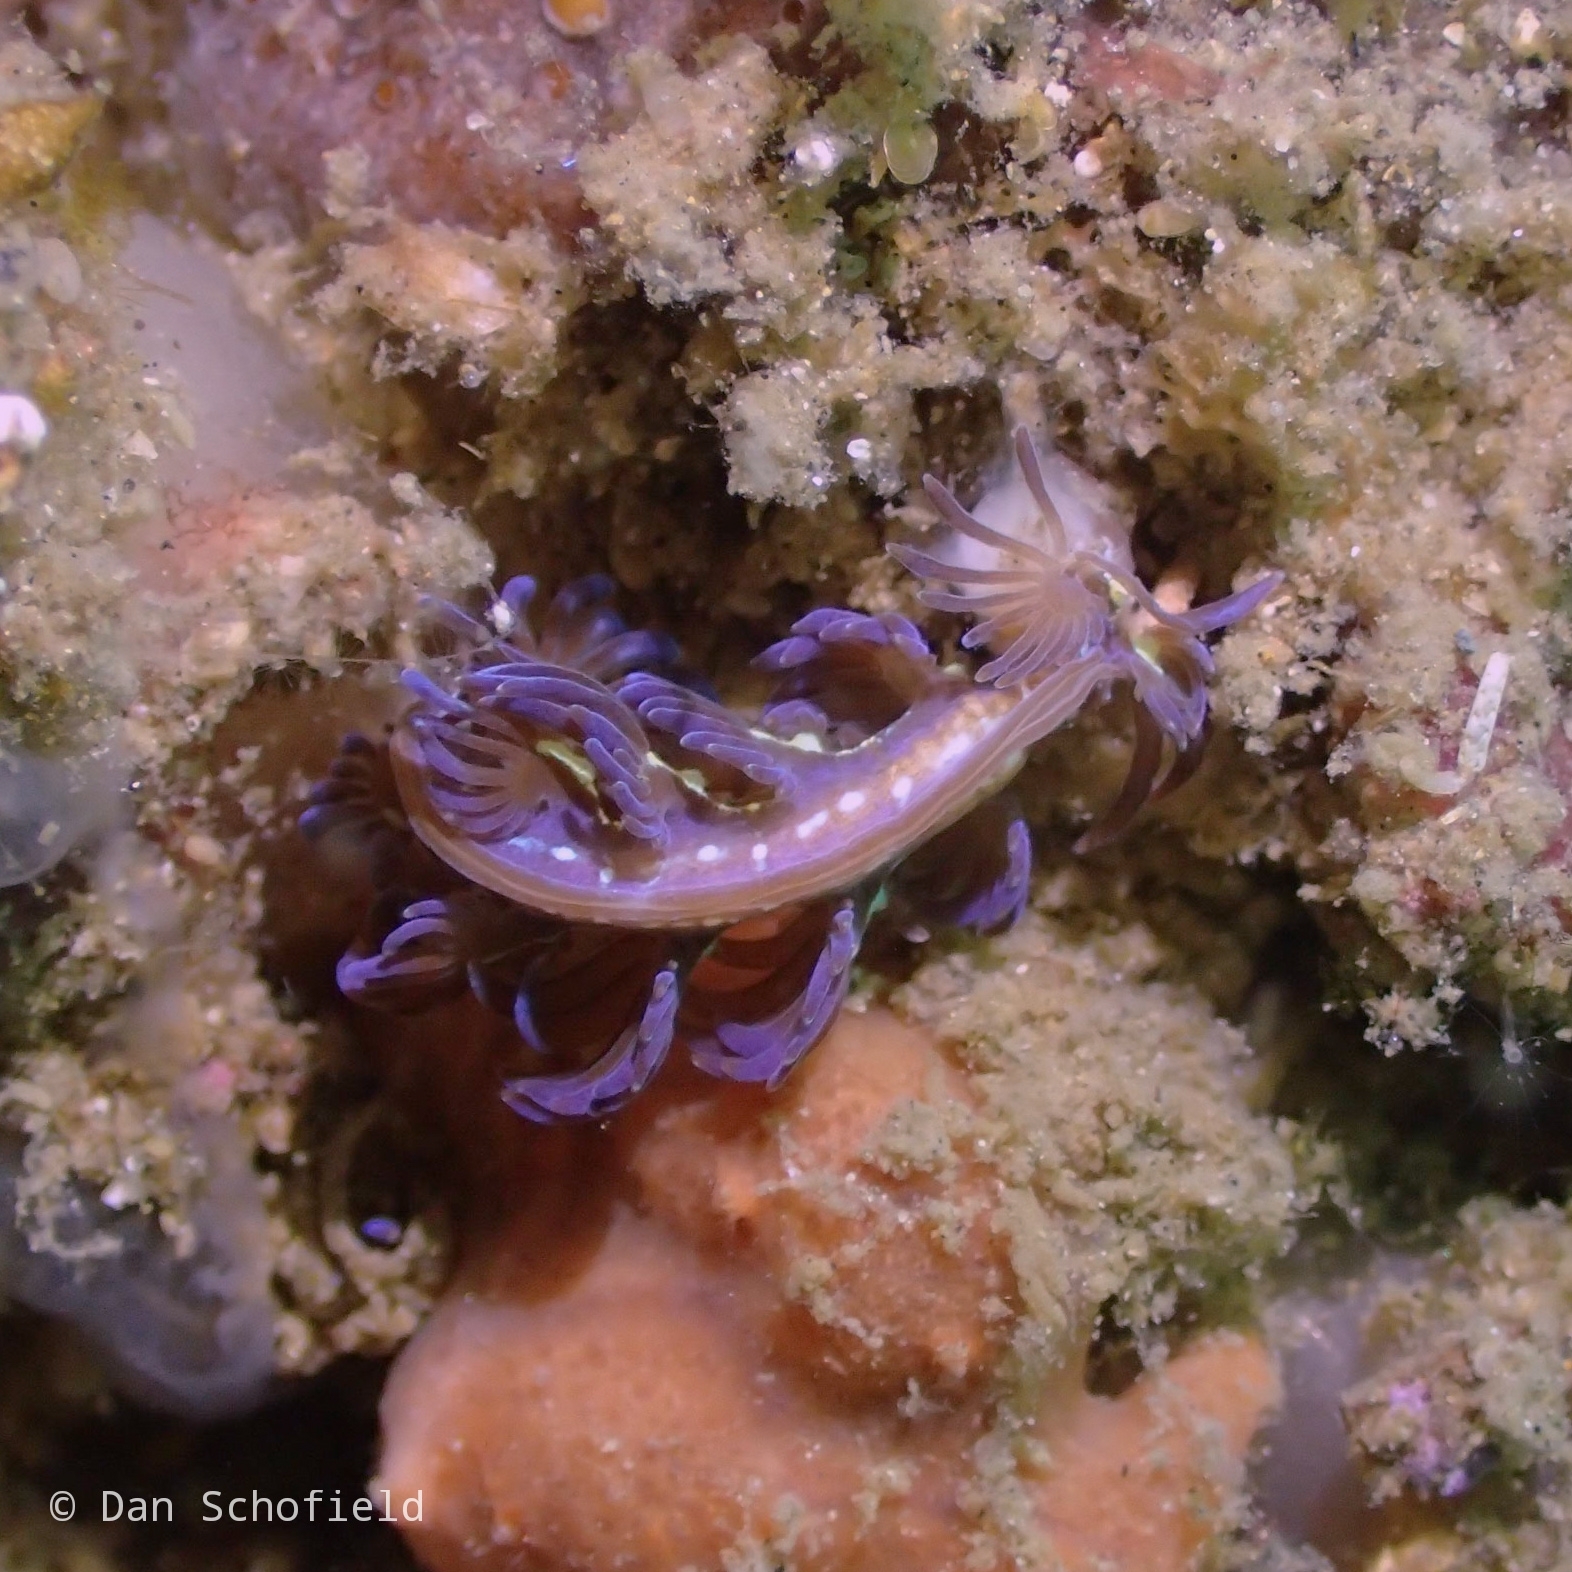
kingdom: Animalia
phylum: Mollusca
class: Gastropoda
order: Nudibranchia
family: Facelinidae
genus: Pteraeolidia
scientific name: Pteraeolidia semperi
